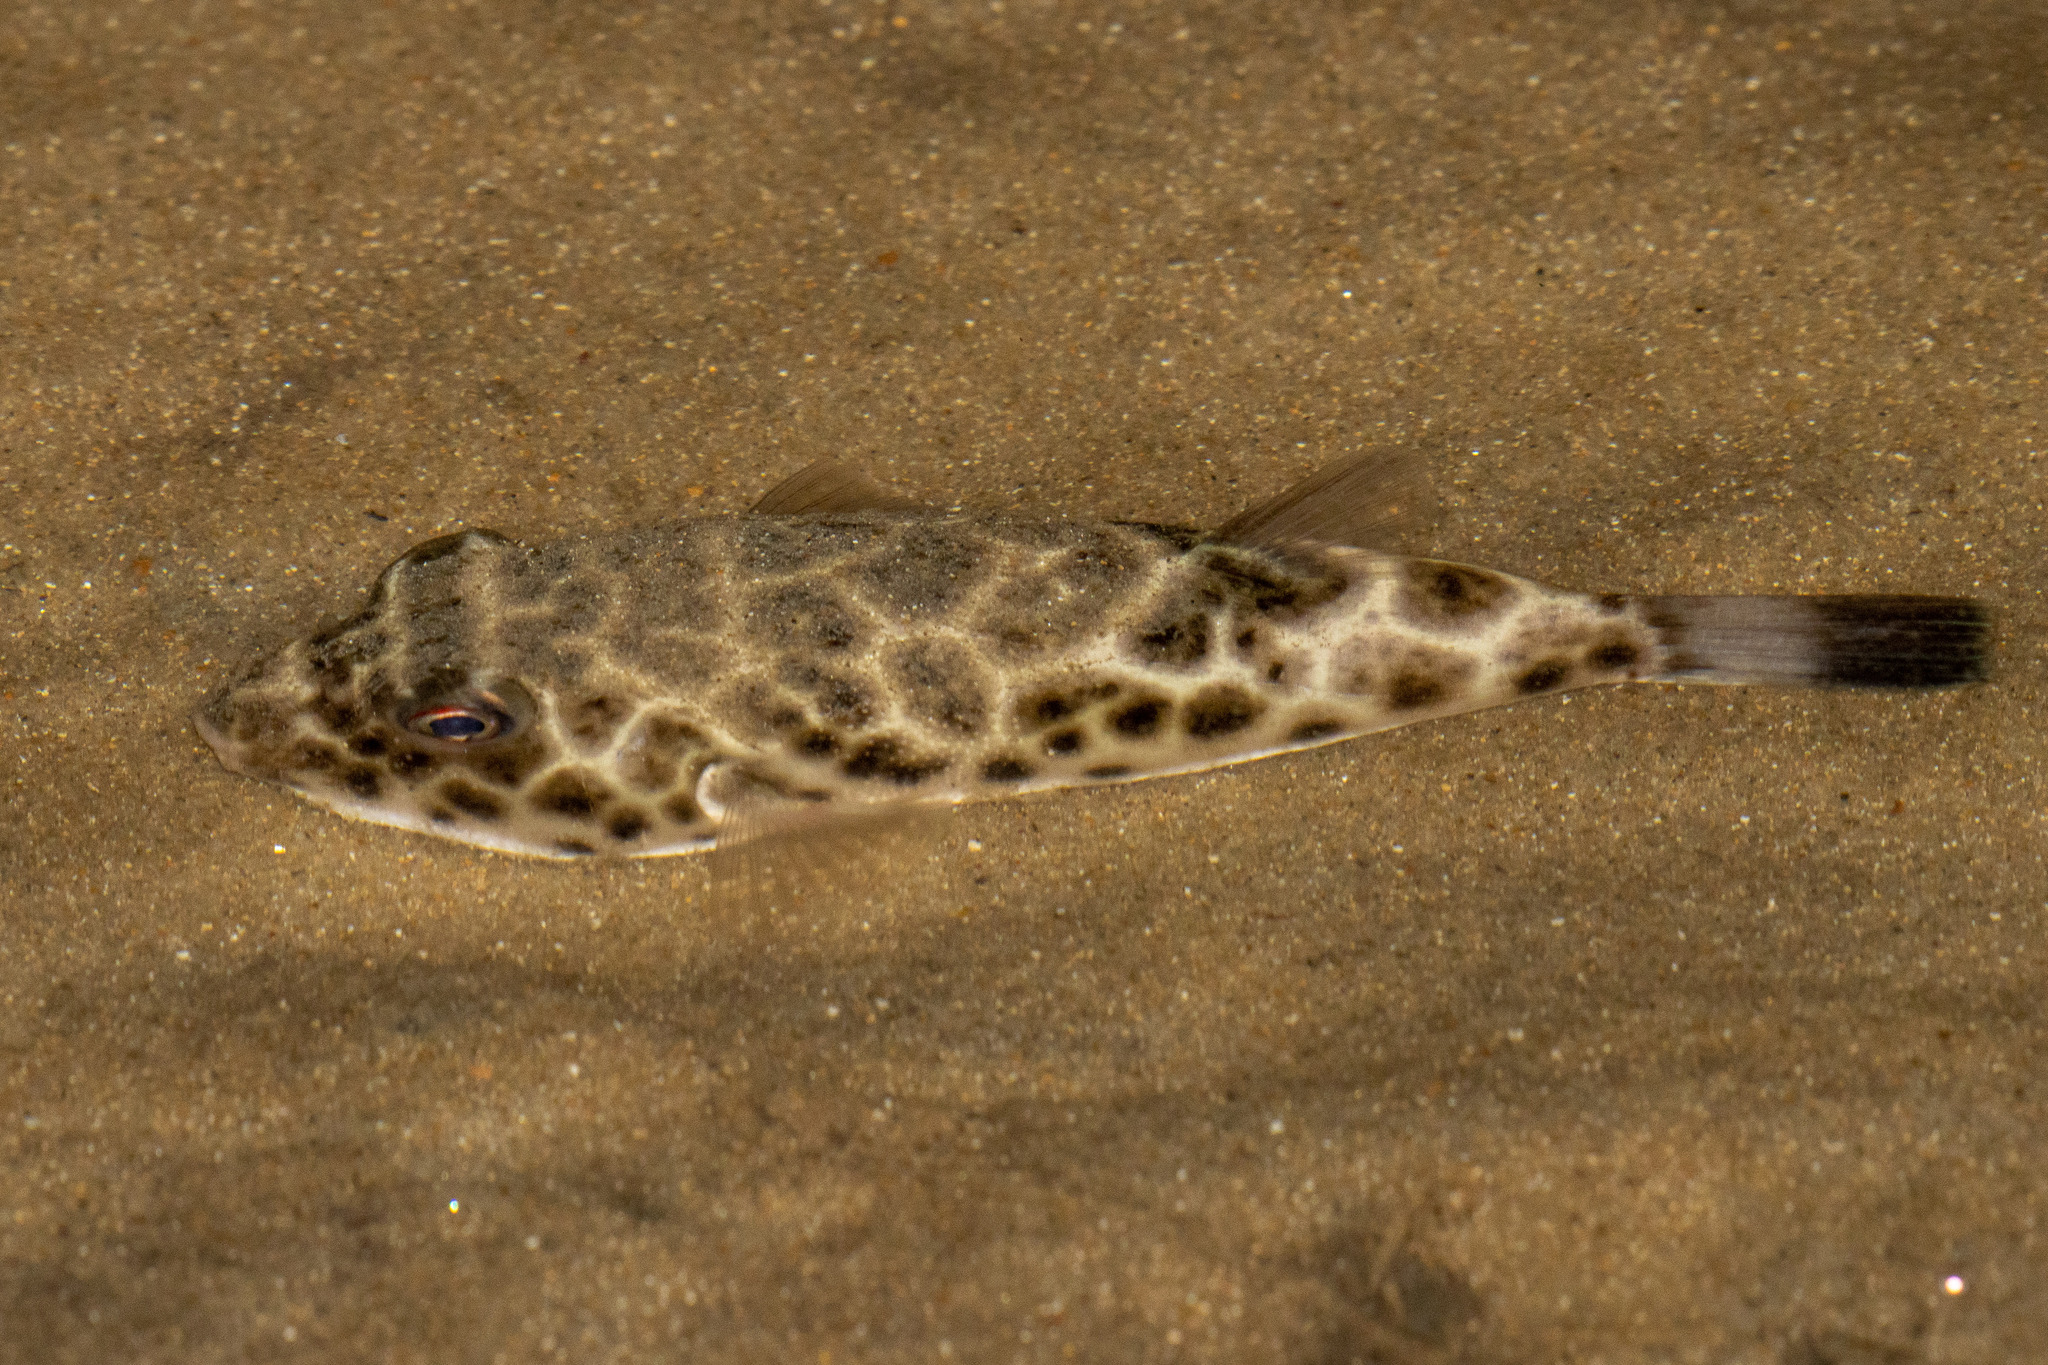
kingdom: Animalia
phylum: Chordata
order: Tetraodontiformes
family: Tetraodontidae
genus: Sphoeroides
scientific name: Sphoeroides testudineus
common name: Checkered puffer
